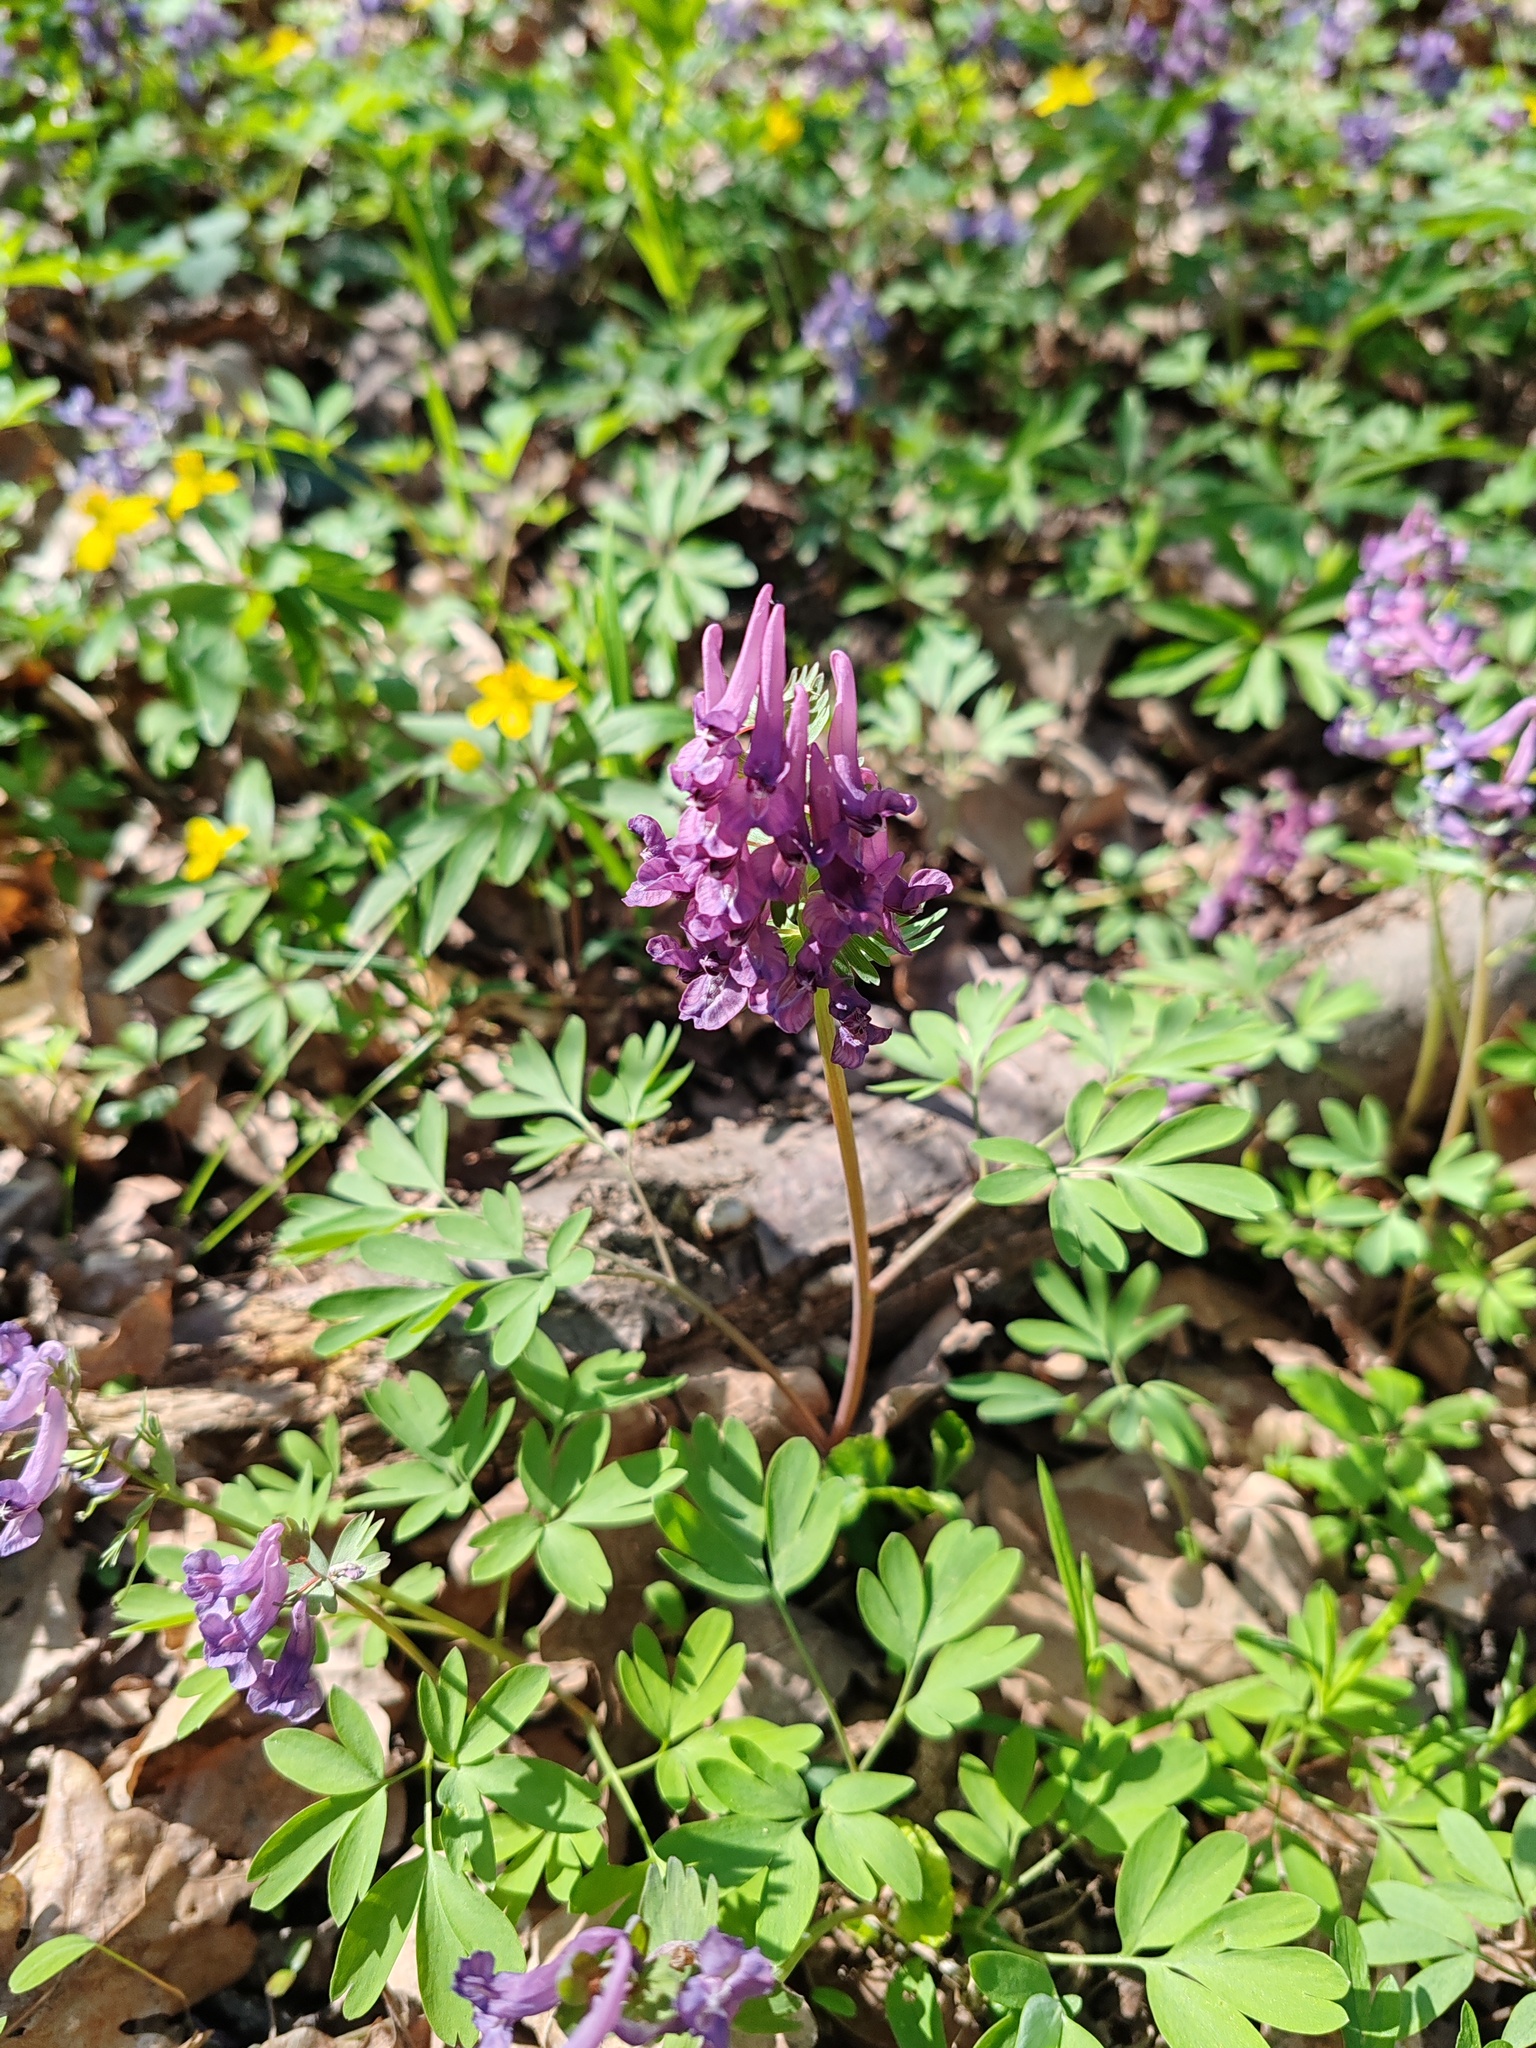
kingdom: Plantae
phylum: Tracheophyta
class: Magnoliopsida
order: Ranunculales
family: Papaveraceae
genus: Corydalis
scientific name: Corydalis solida
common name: Bird-in-a-bush
